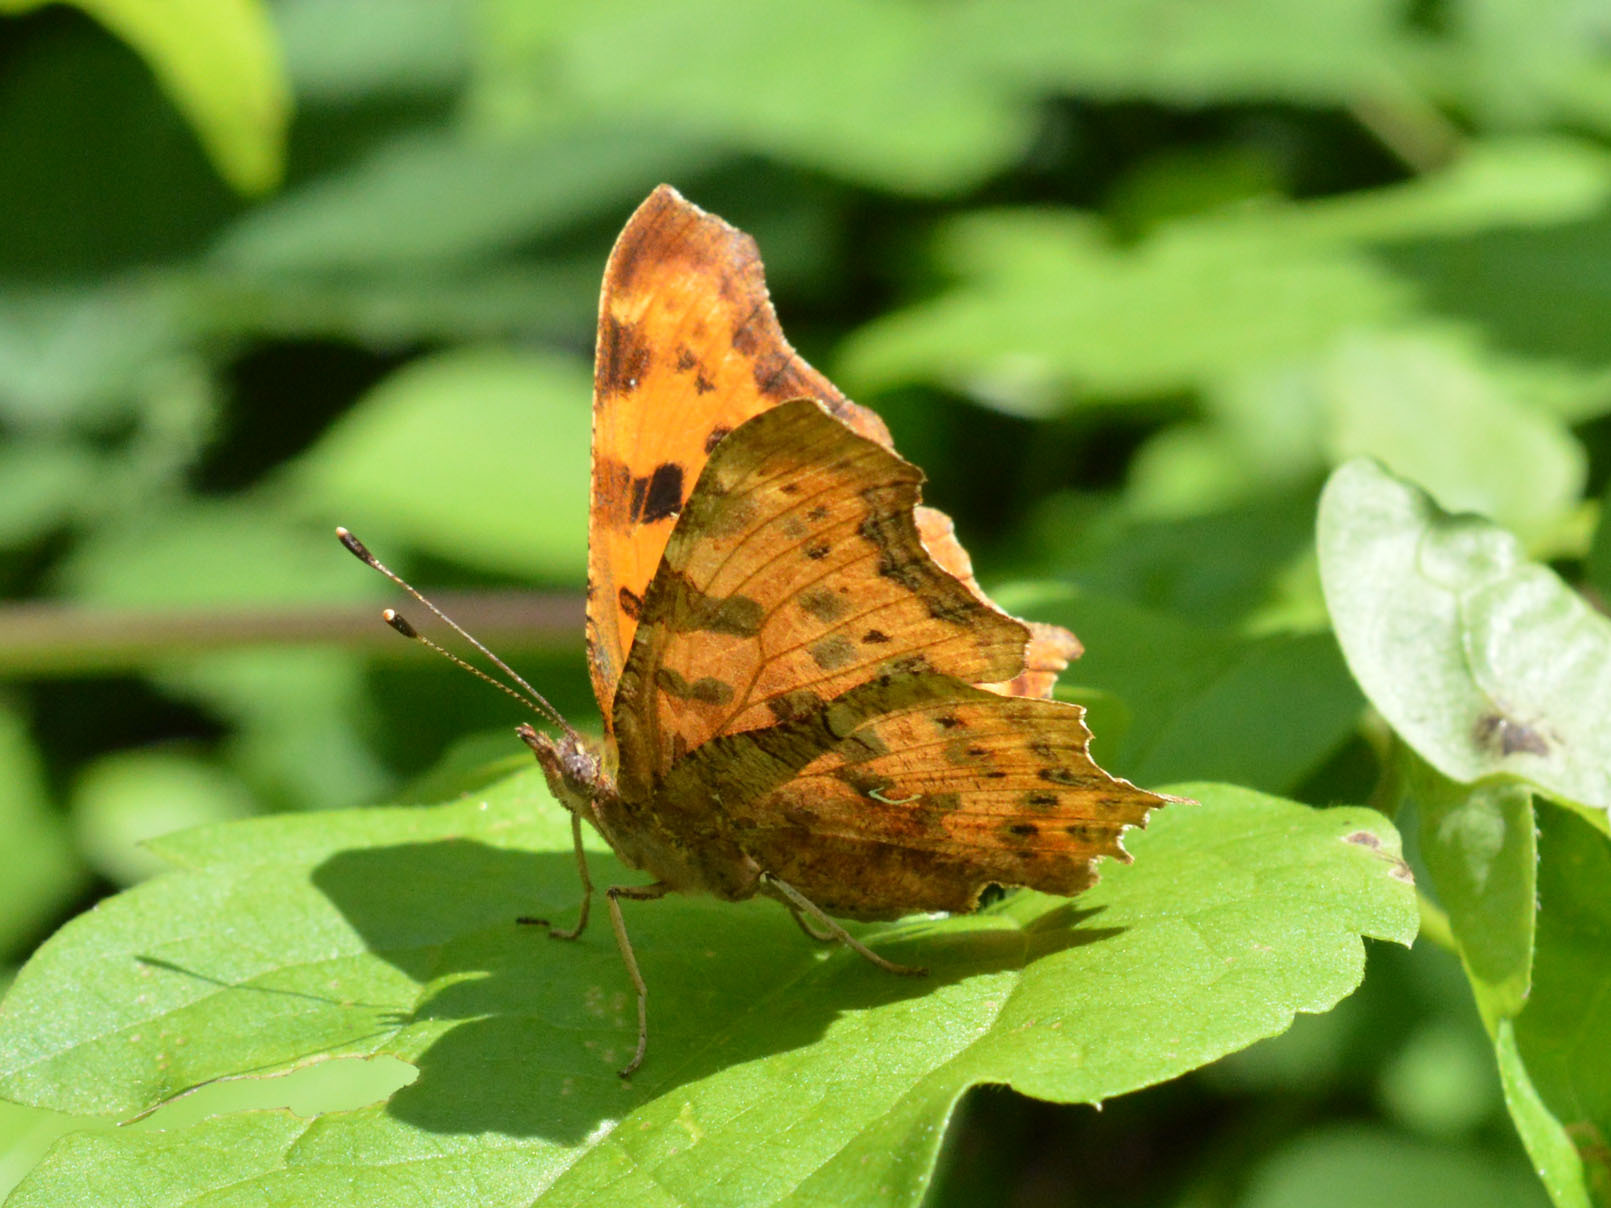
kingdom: Animalia
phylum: Arthropoda
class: Insecta
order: Lepidoptera
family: Nymphalidae
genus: Polygonia
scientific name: Polygonia c-album
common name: Comma
